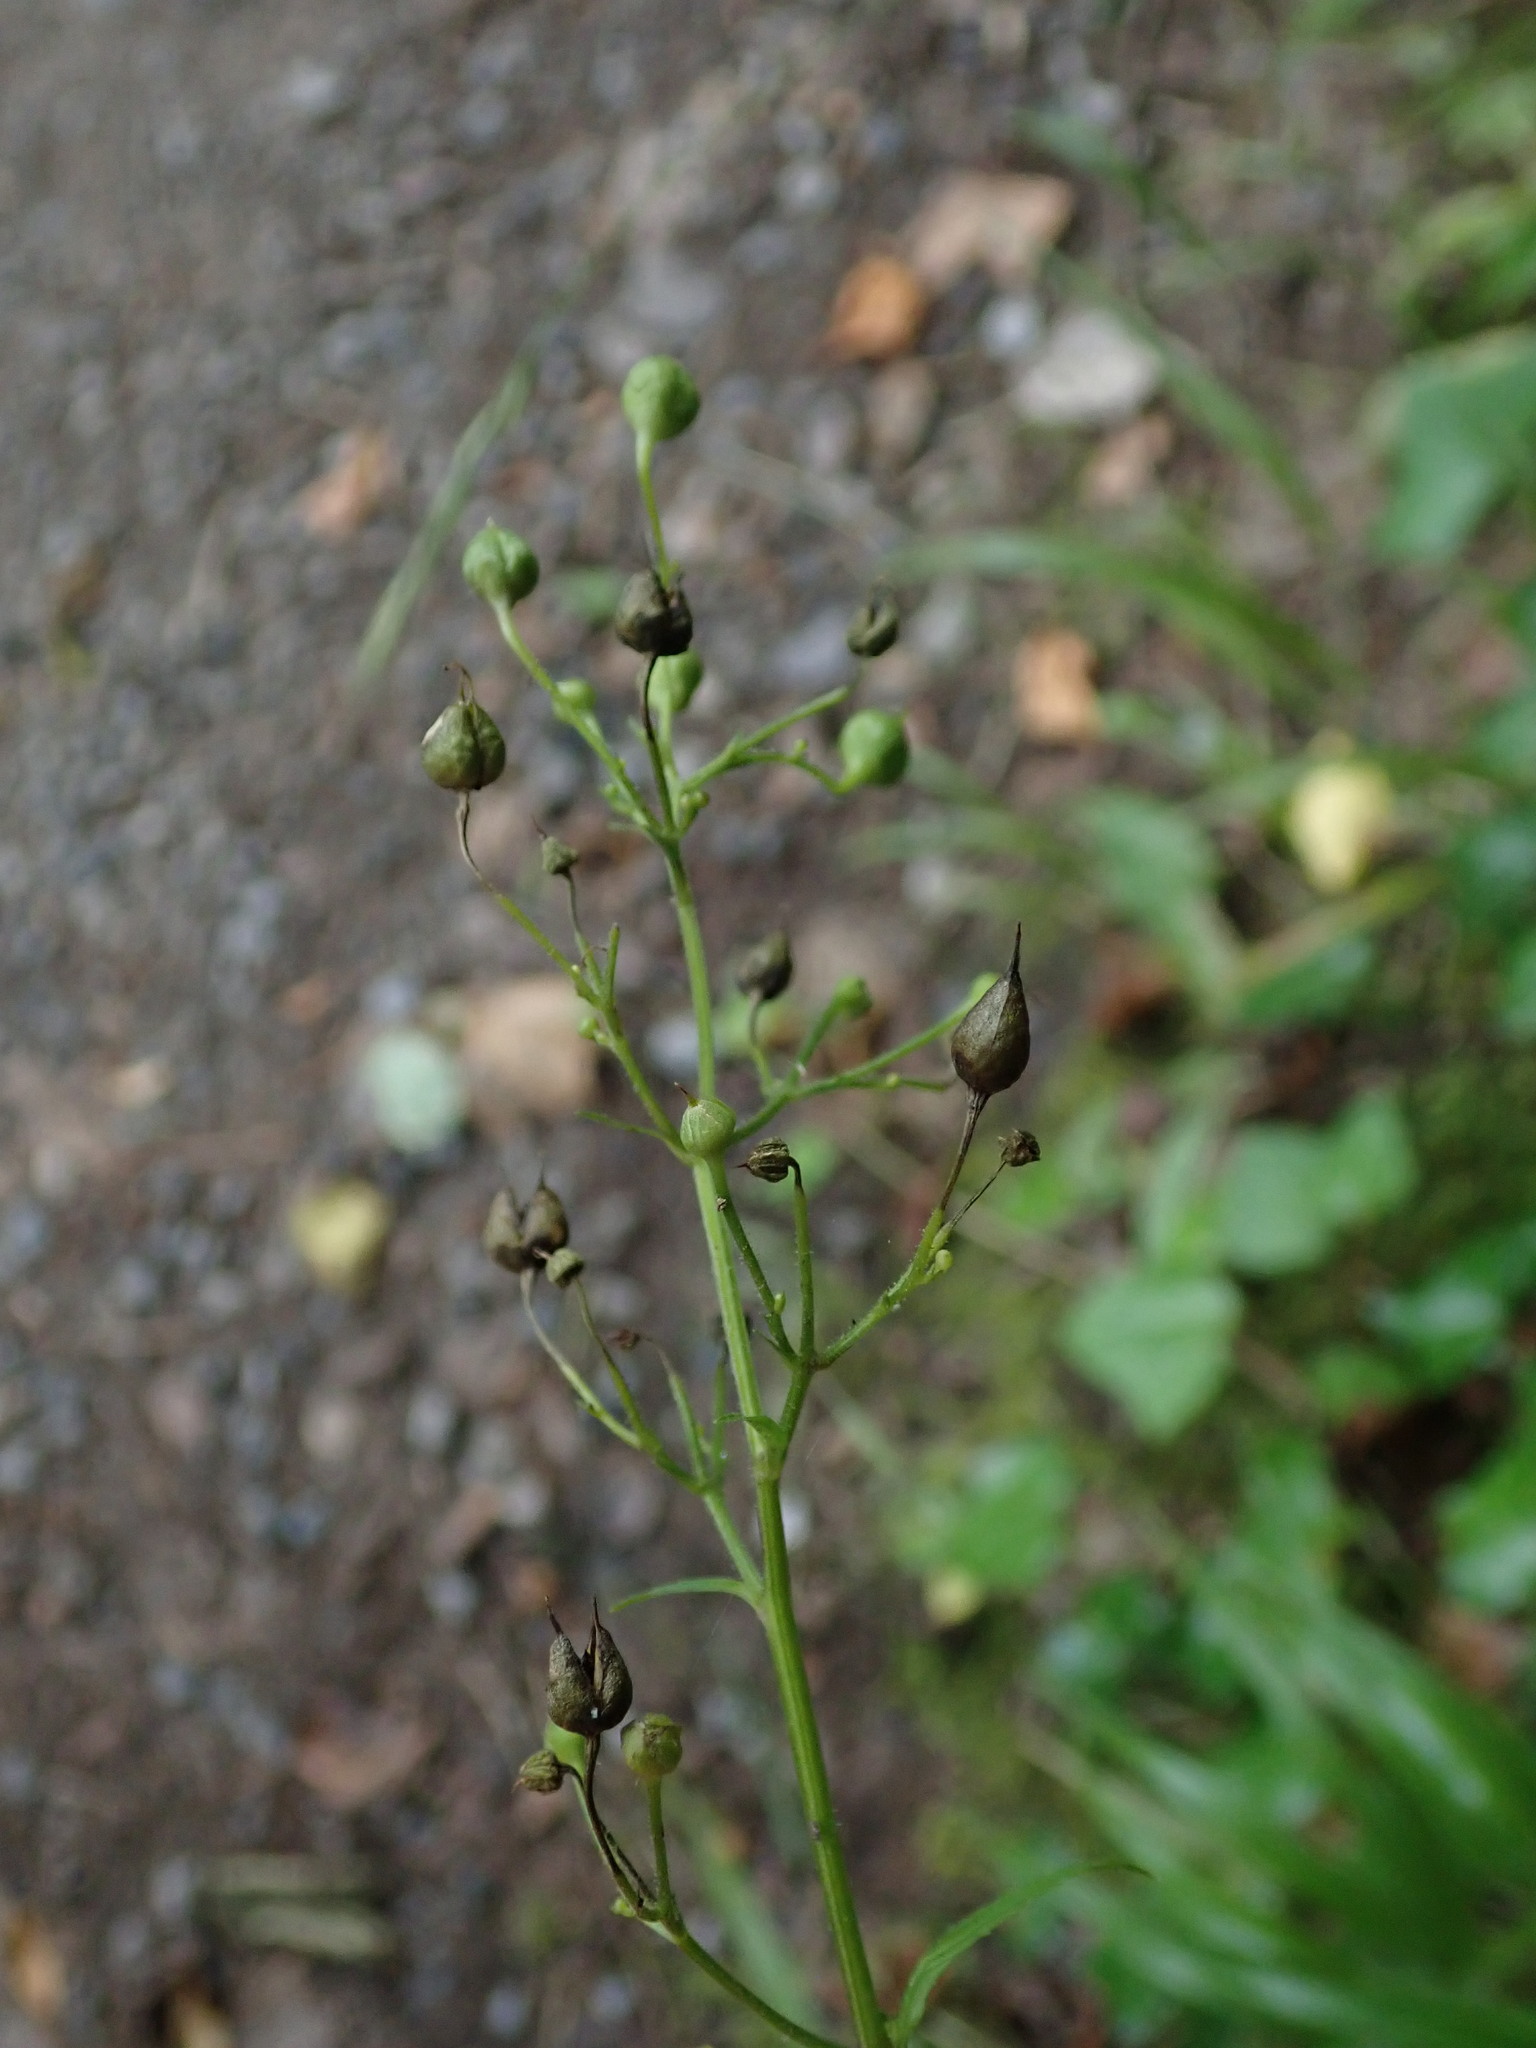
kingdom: Plantae
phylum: Tracheophyta
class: Magnoliopsida
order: Lamiales
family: Scrophulariaceae
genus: Scrophularia
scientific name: Scrophularia nodosa
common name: Common figwort
